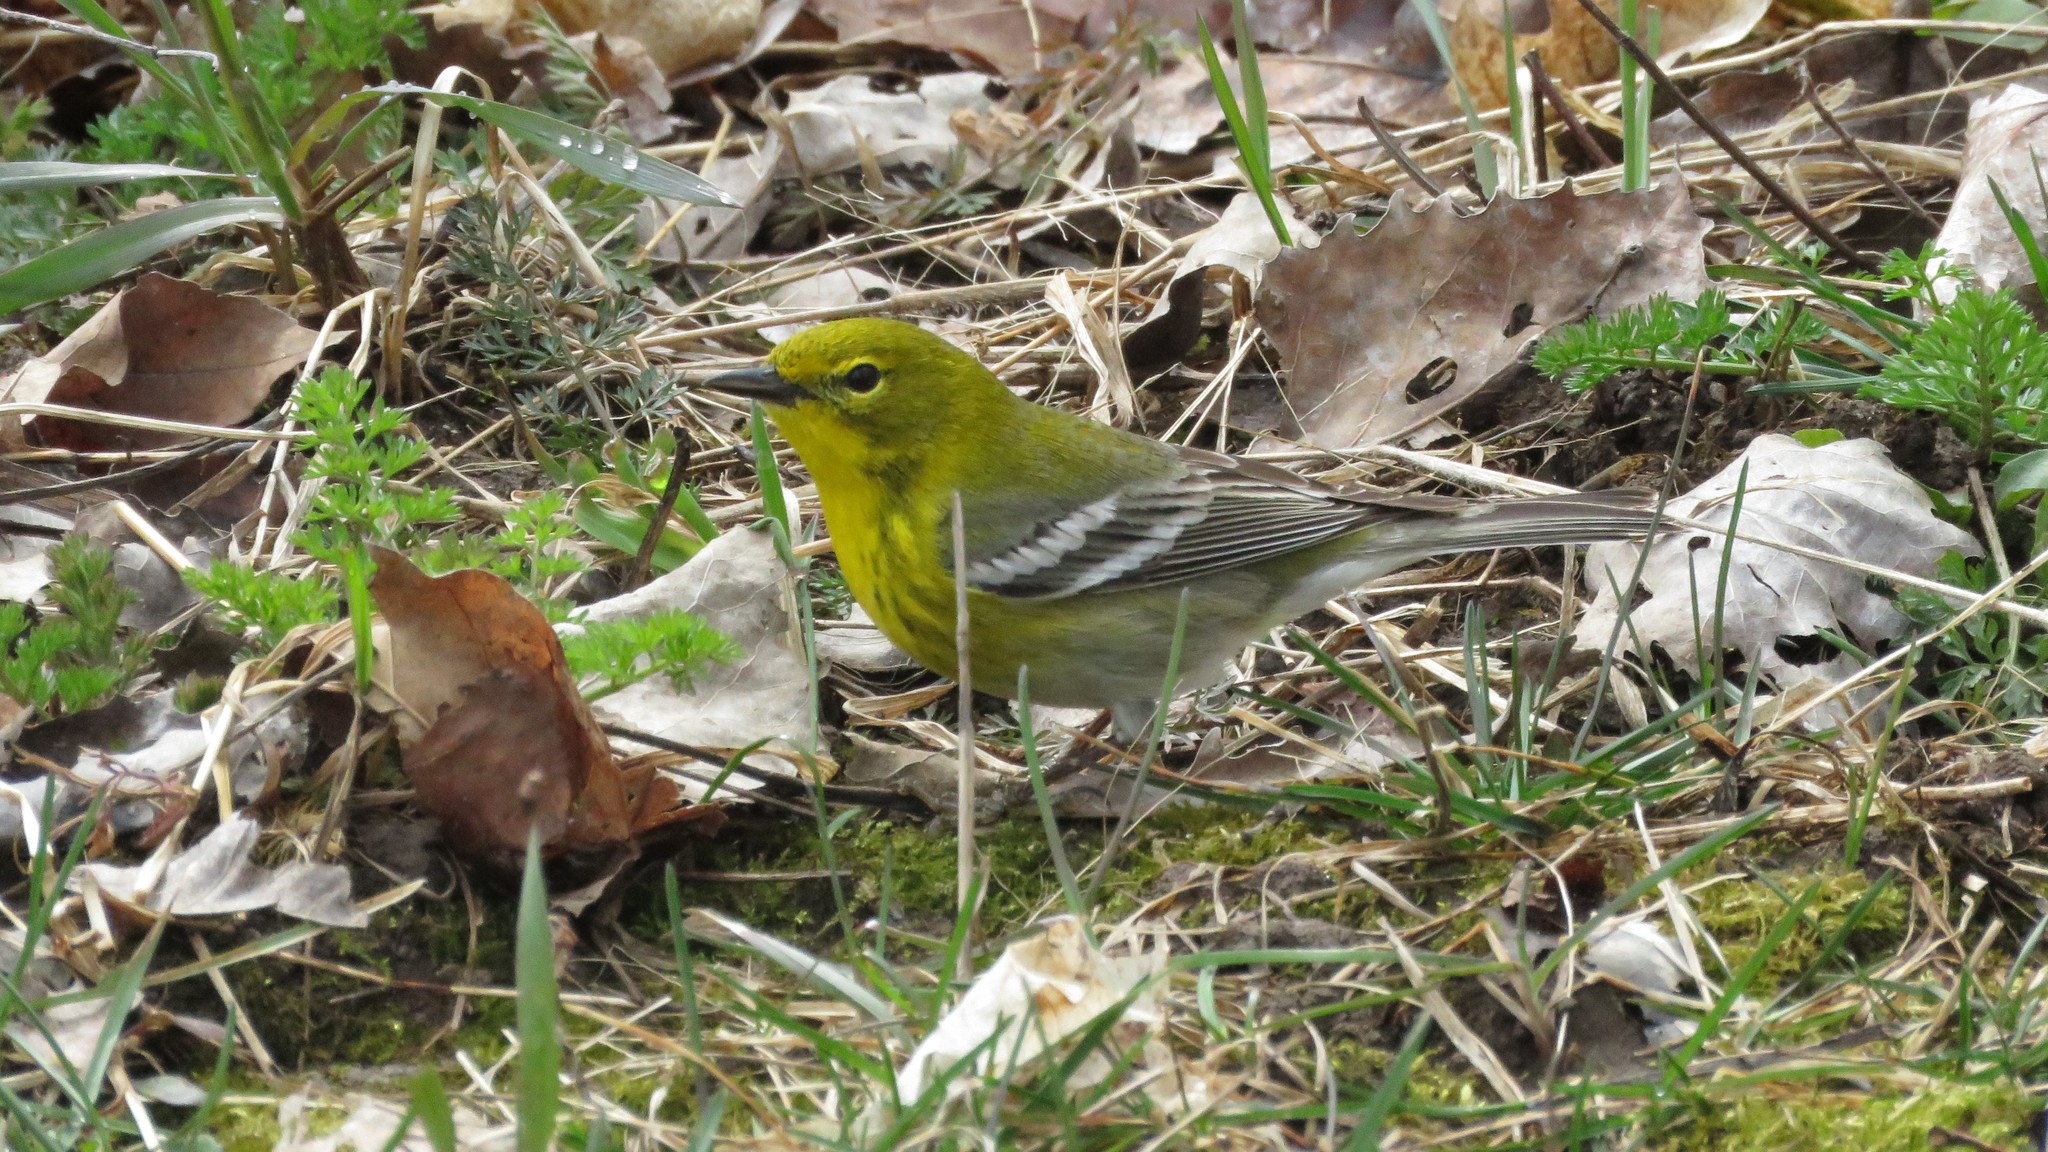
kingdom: Animalia
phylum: Chordata
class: Aves
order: Passeriformes
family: Parulidae
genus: Setophaga
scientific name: Setophaga pinus
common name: Pine warbler
